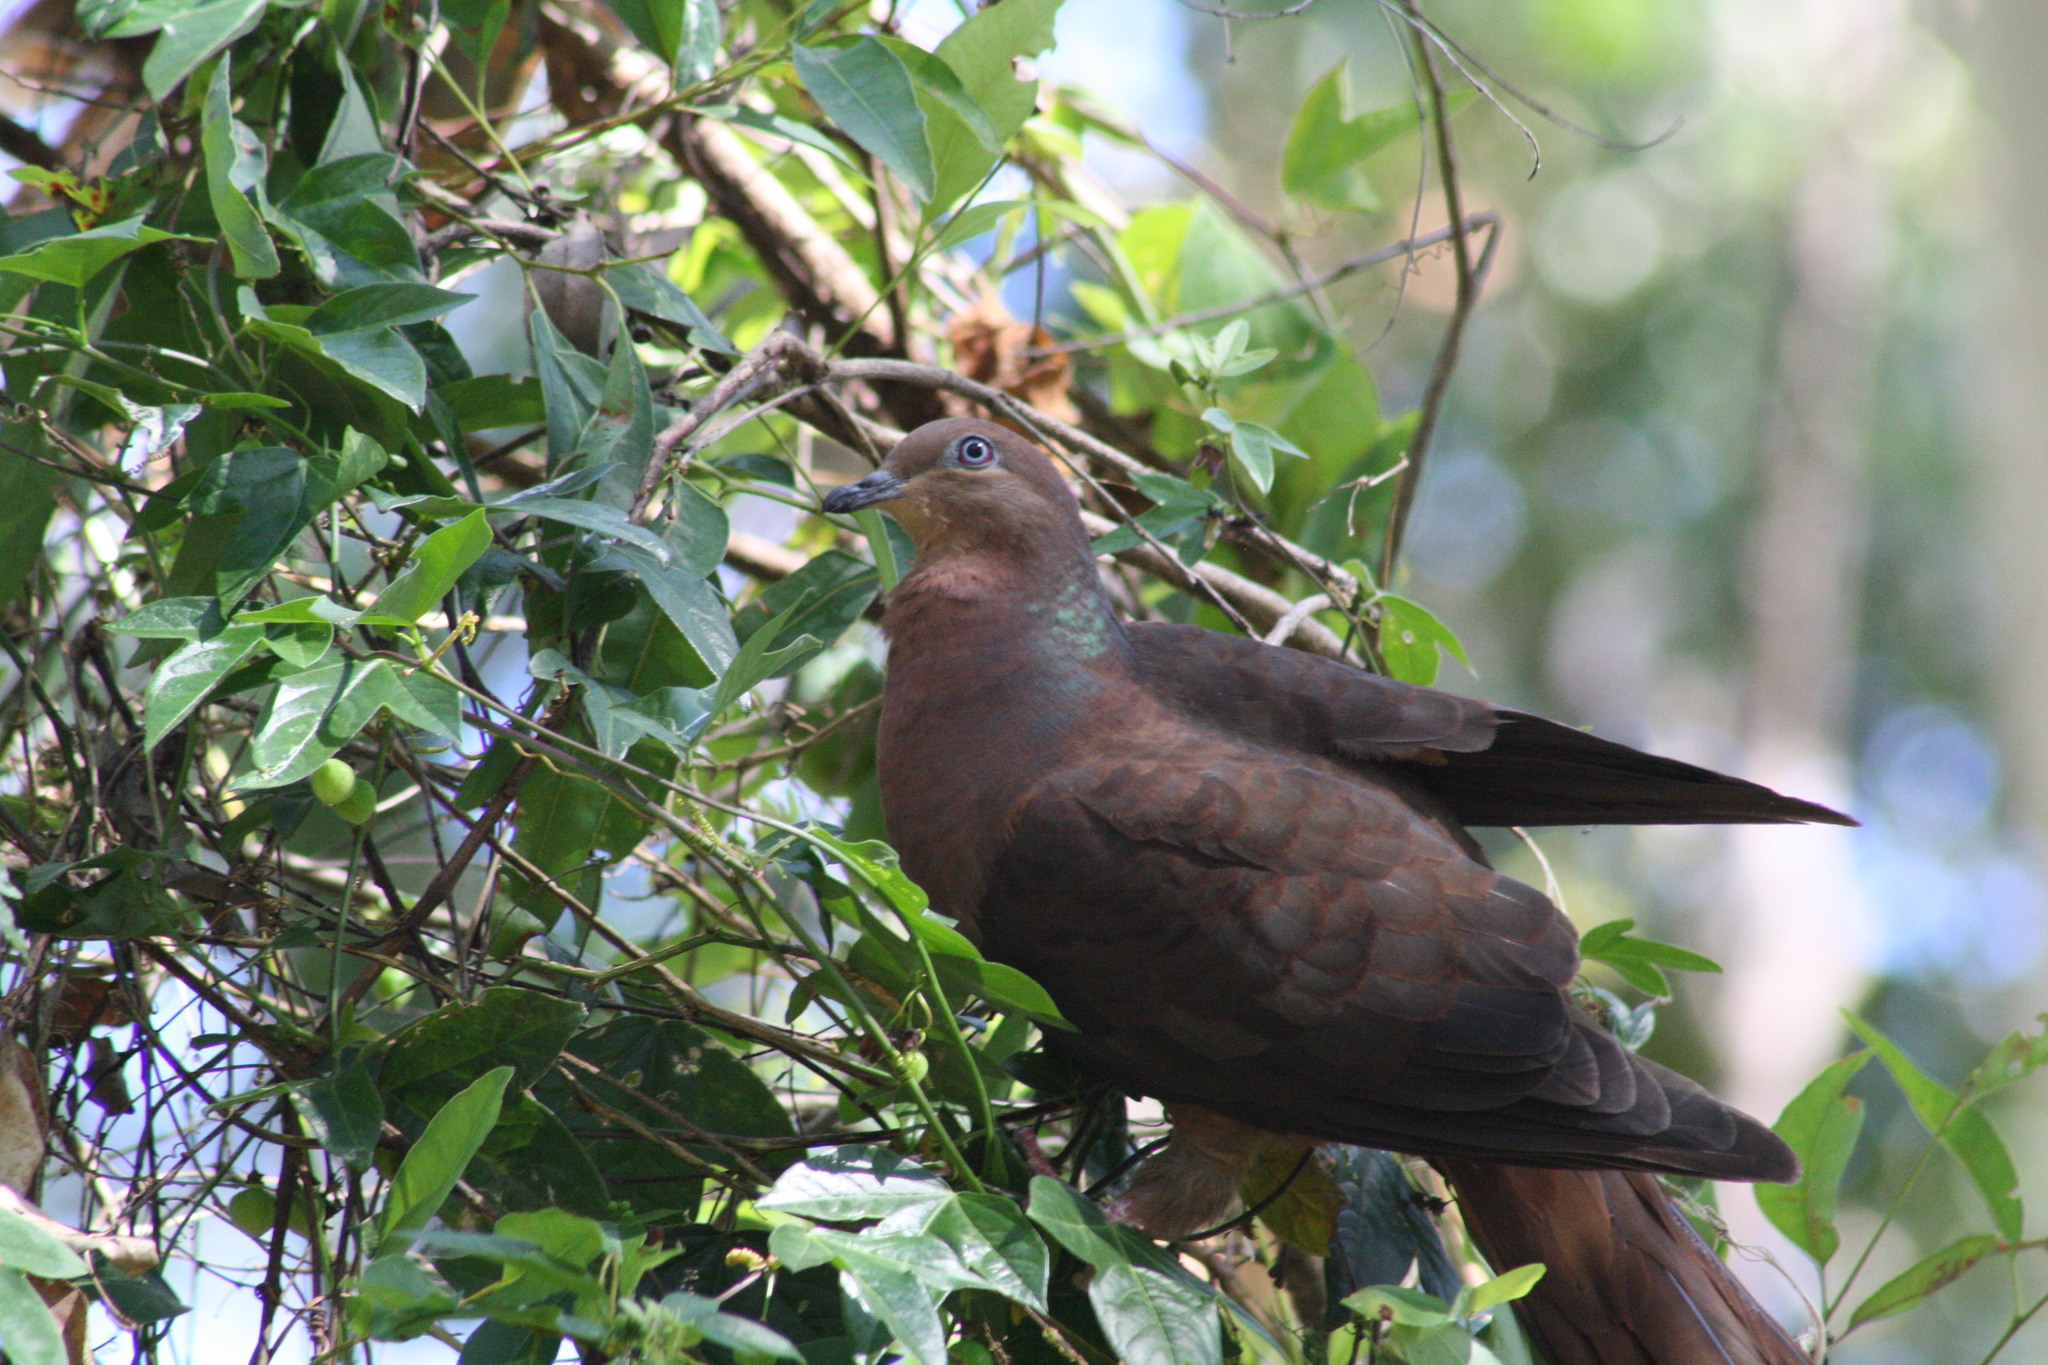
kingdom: Animalia
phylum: Chordata
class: Aves
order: Columbiformes
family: Columbidae
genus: Macropygia
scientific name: Macropygia phasianella
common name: Brown cuckoo-dove
